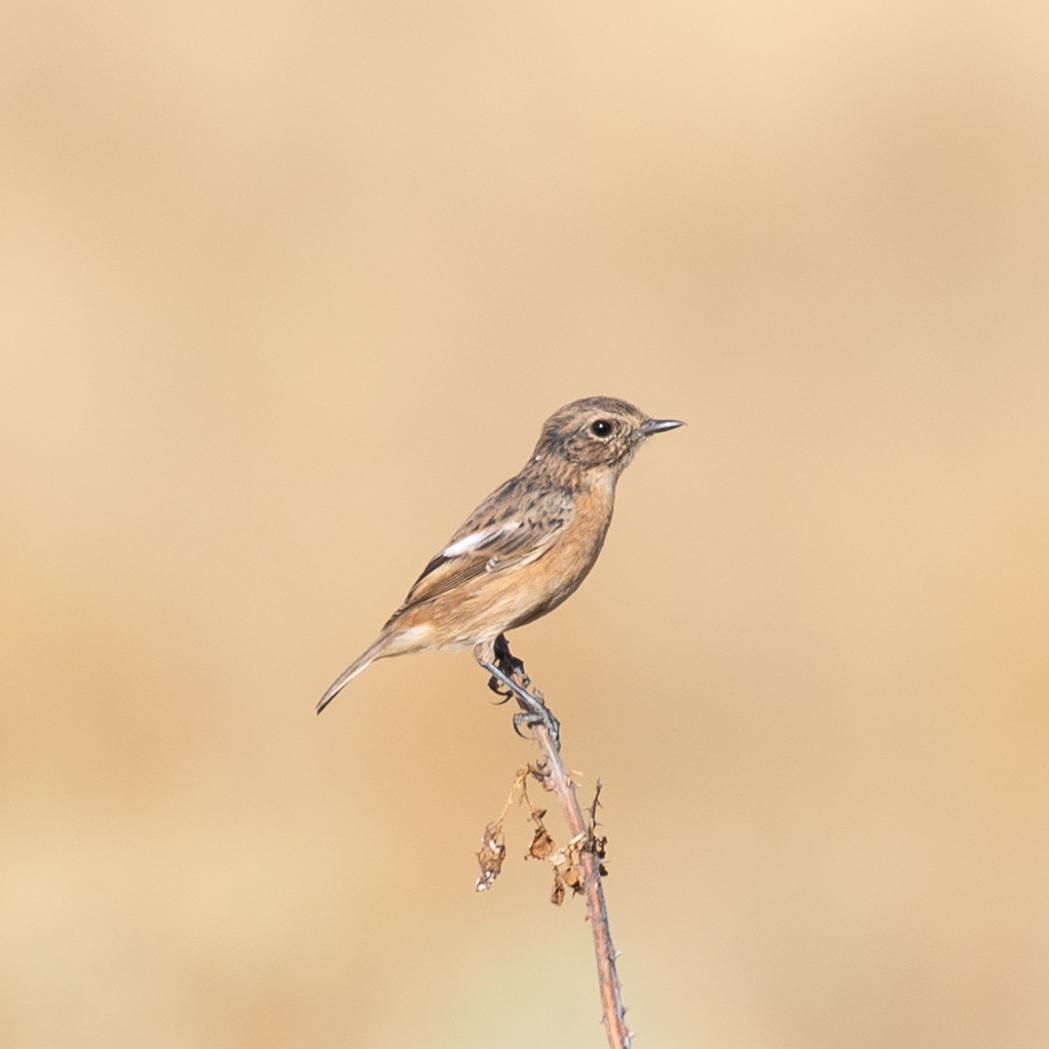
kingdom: Animalia
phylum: Chordata
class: Aves
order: Passeriformes
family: Muscicapidae
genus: Saxicola
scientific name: Saxicola rubicola
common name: European stonechat
